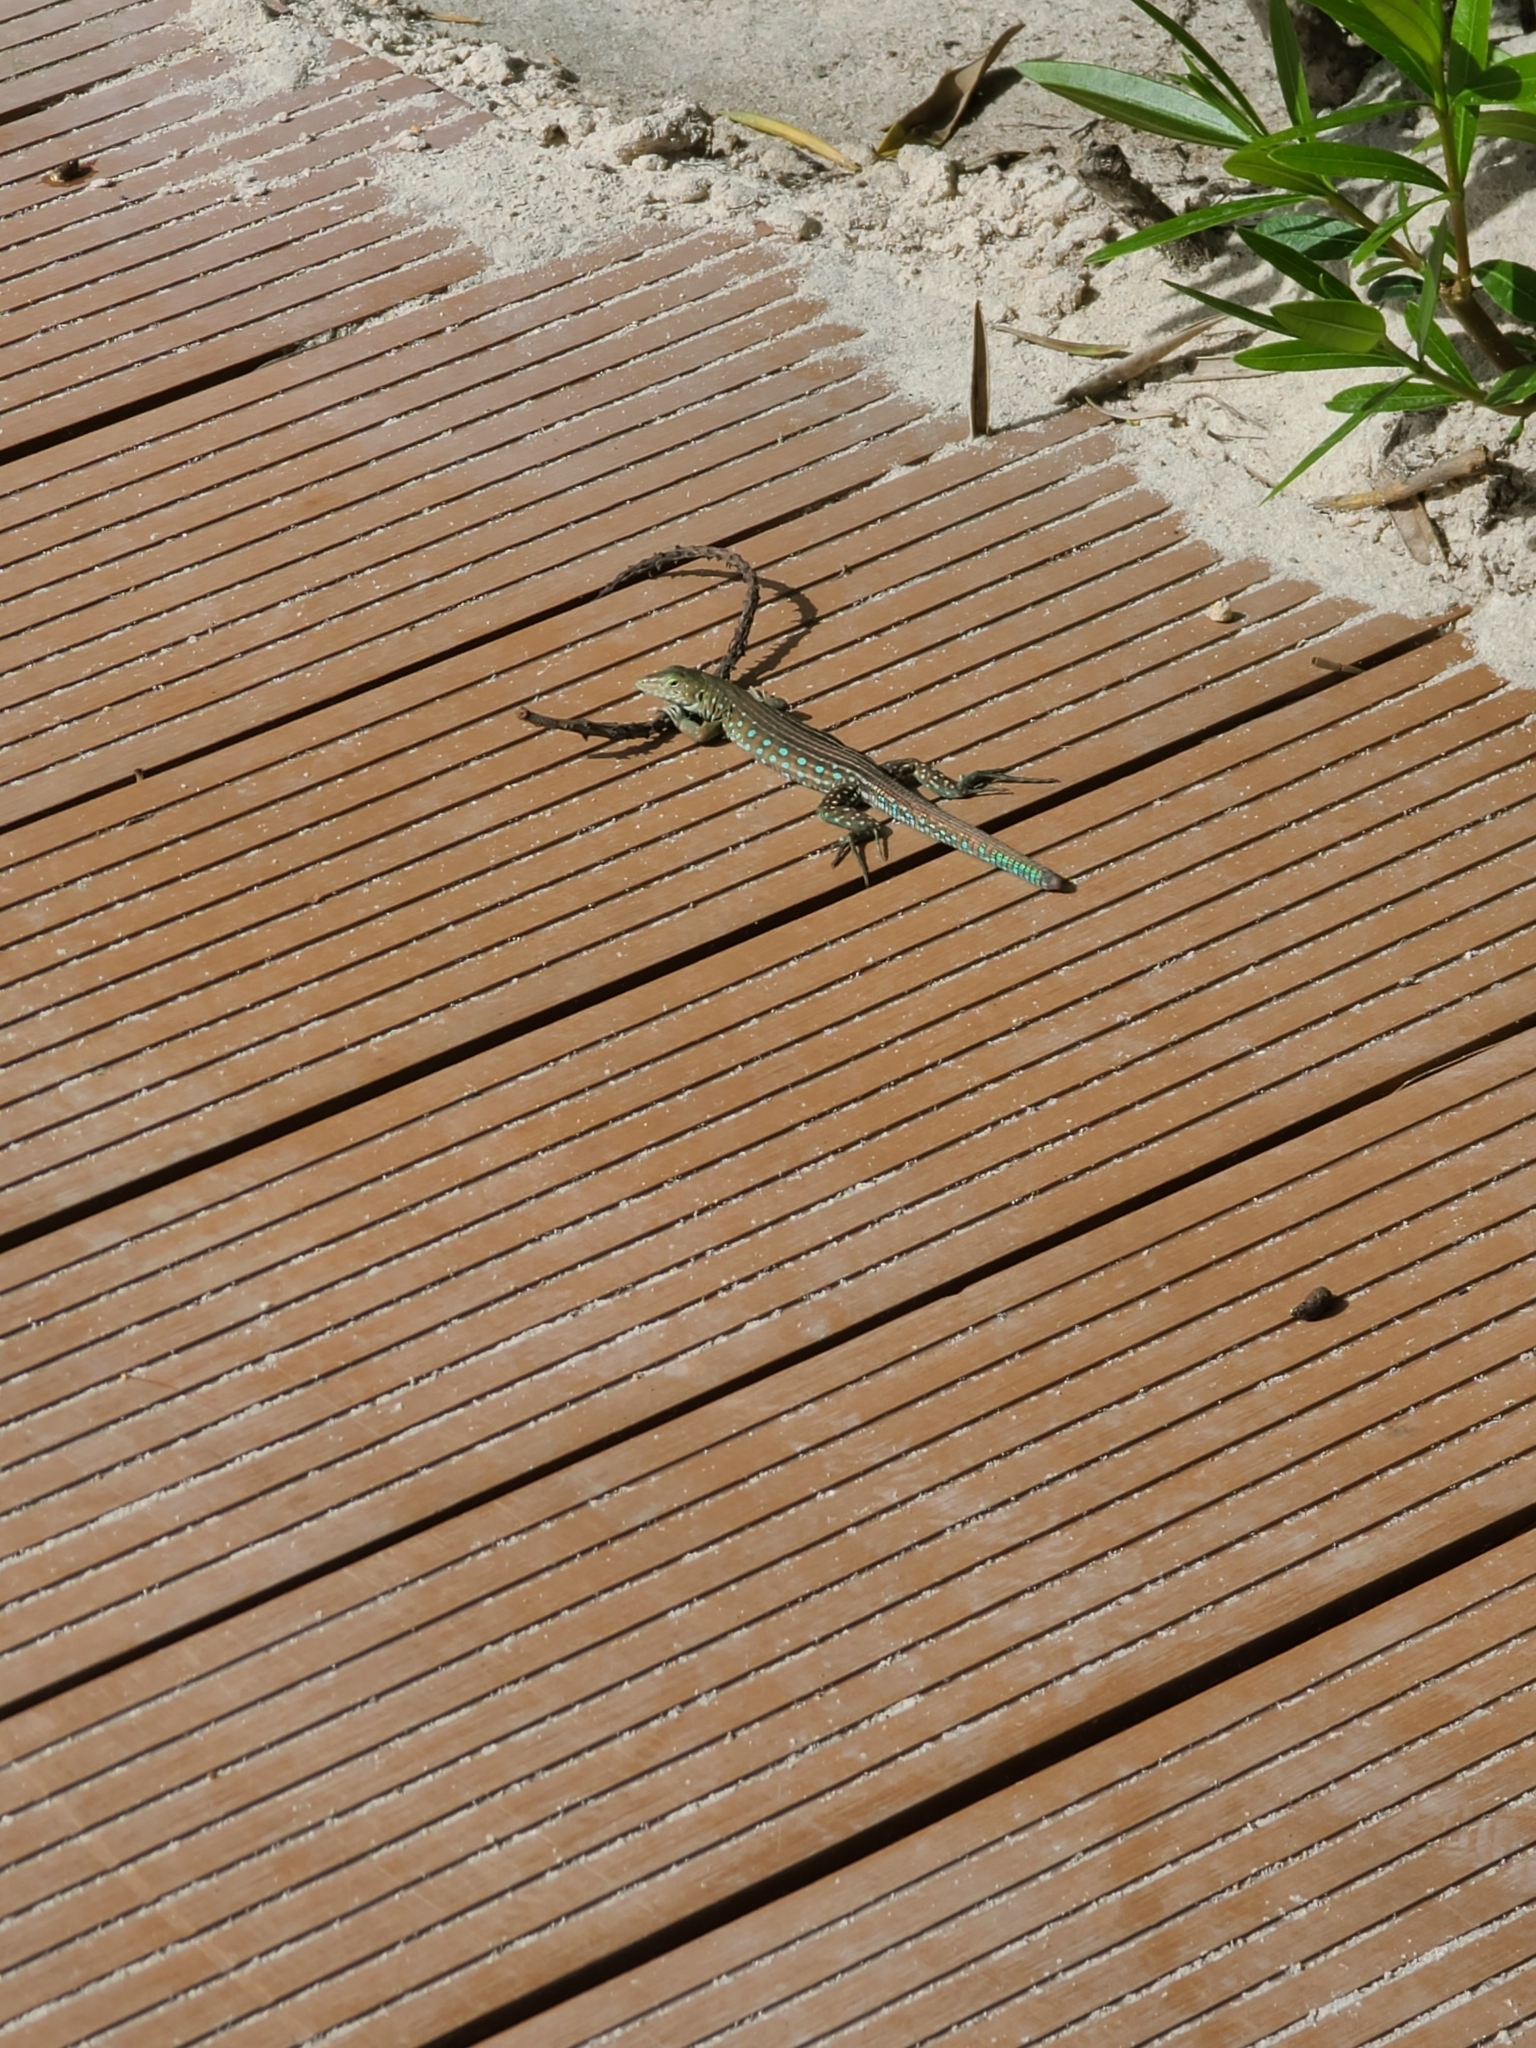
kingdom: Animalia
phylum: Chordata
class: Squamata
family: Teiidae
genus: Cnemidophorus
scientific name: Cnemidophorus arubensis
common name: Aruba whiptail
